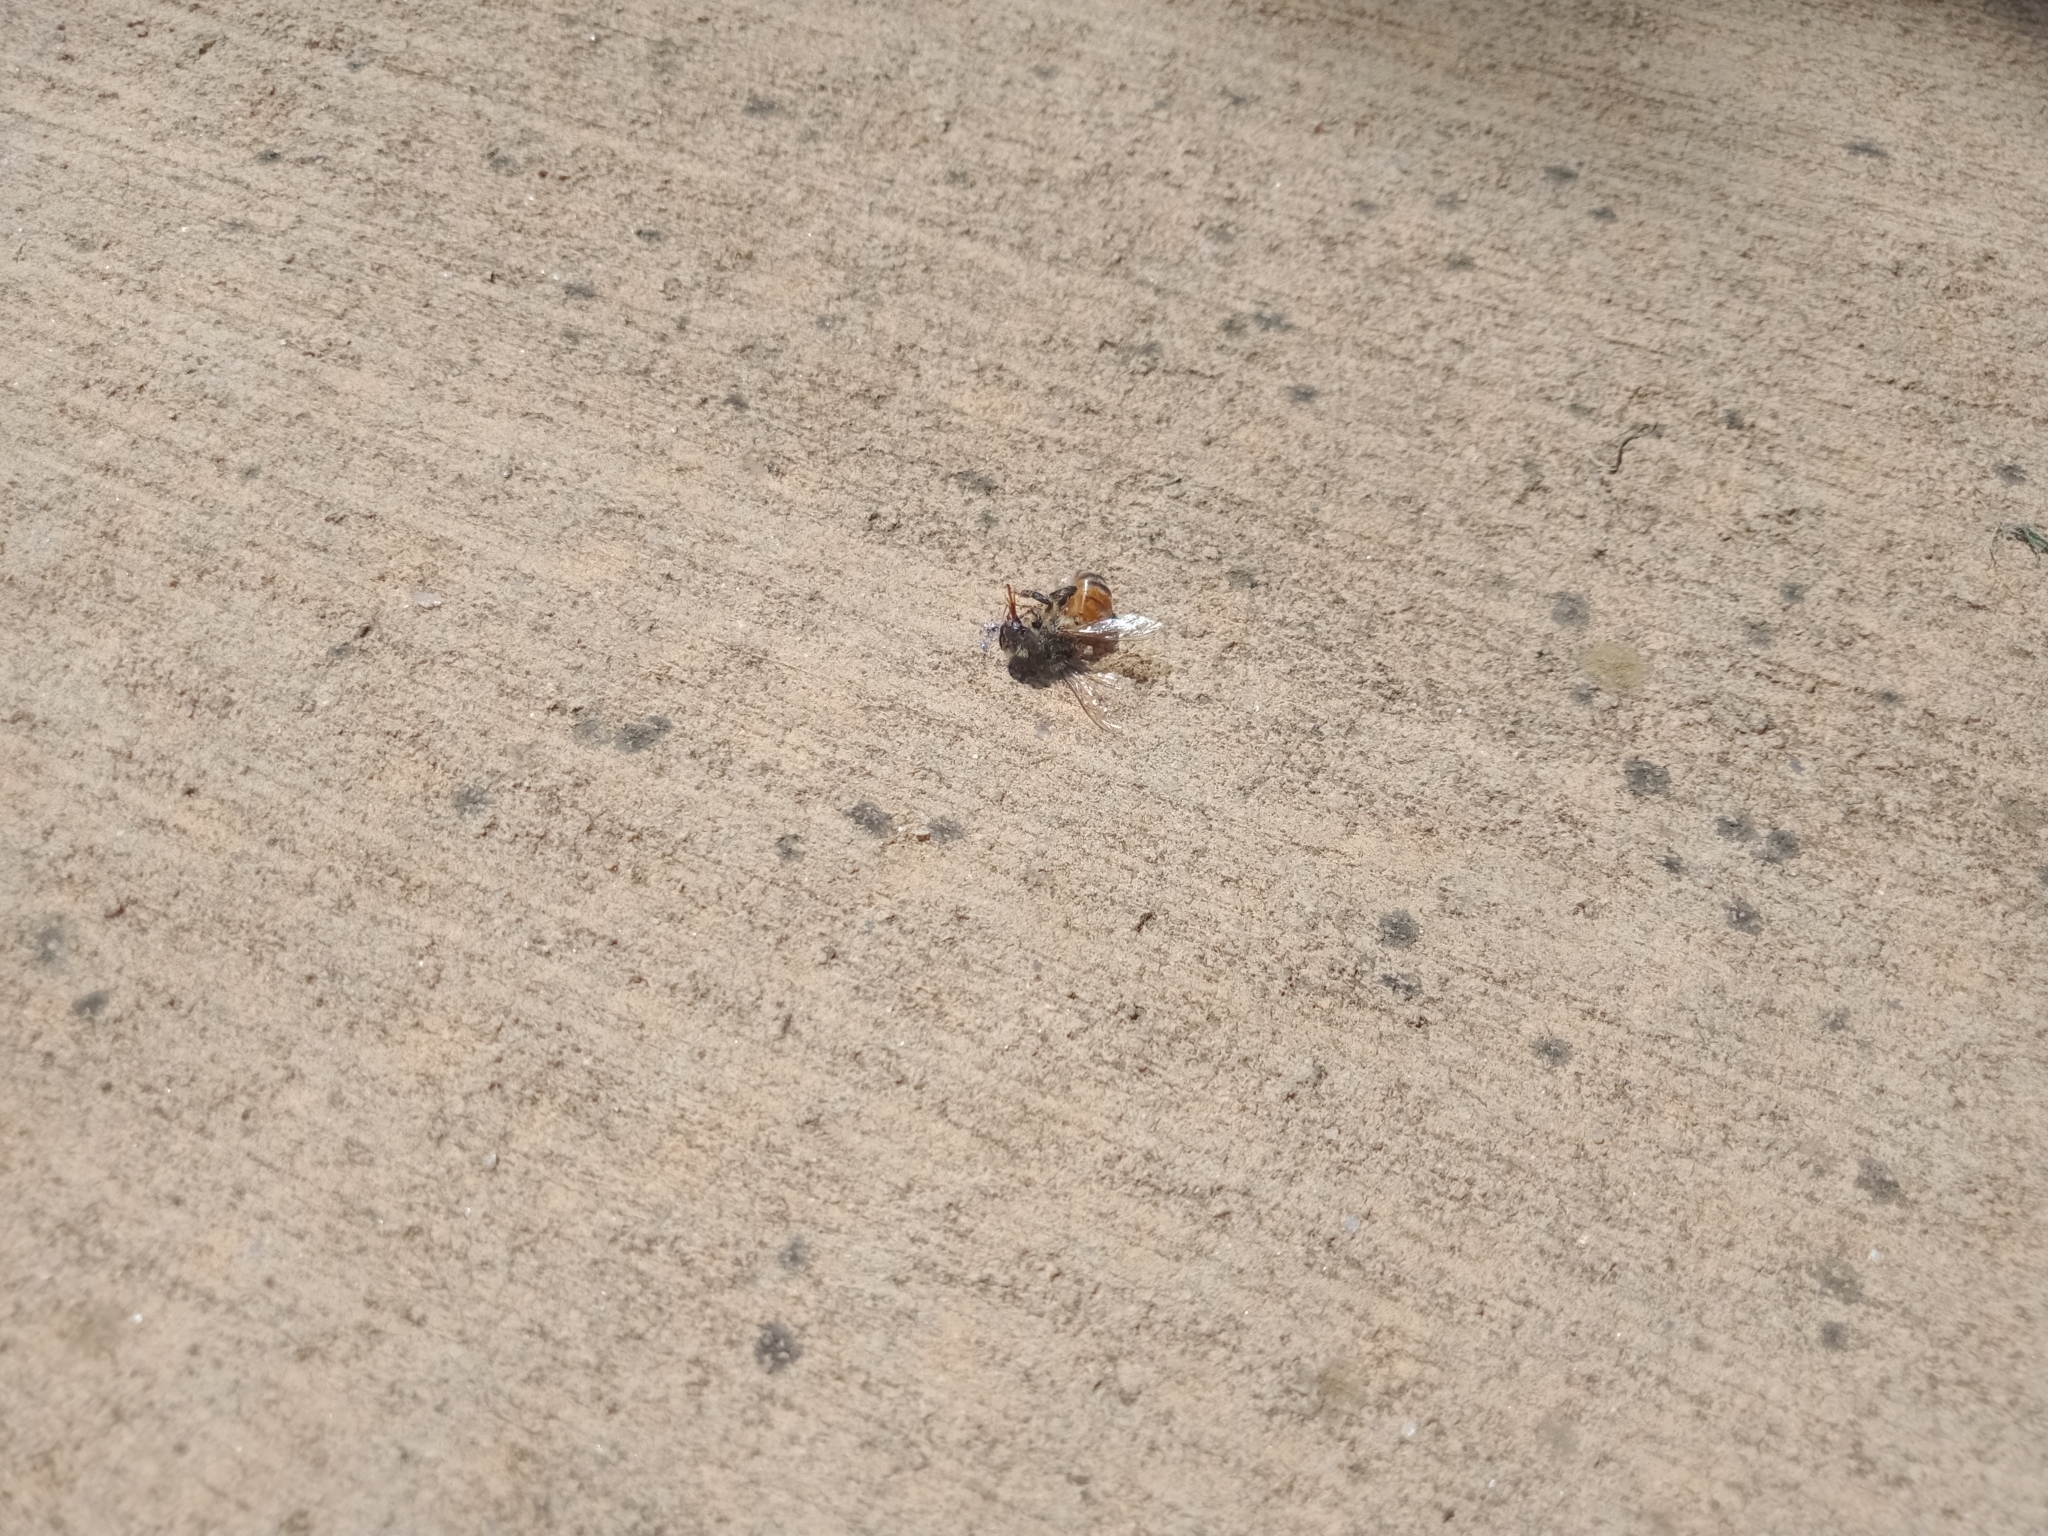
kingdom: Animalia
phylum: Arthropoda
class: Insecta
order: Hymenoptera
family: Apidae
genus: Apis
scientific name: Apis mellifera
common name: Honey bee
